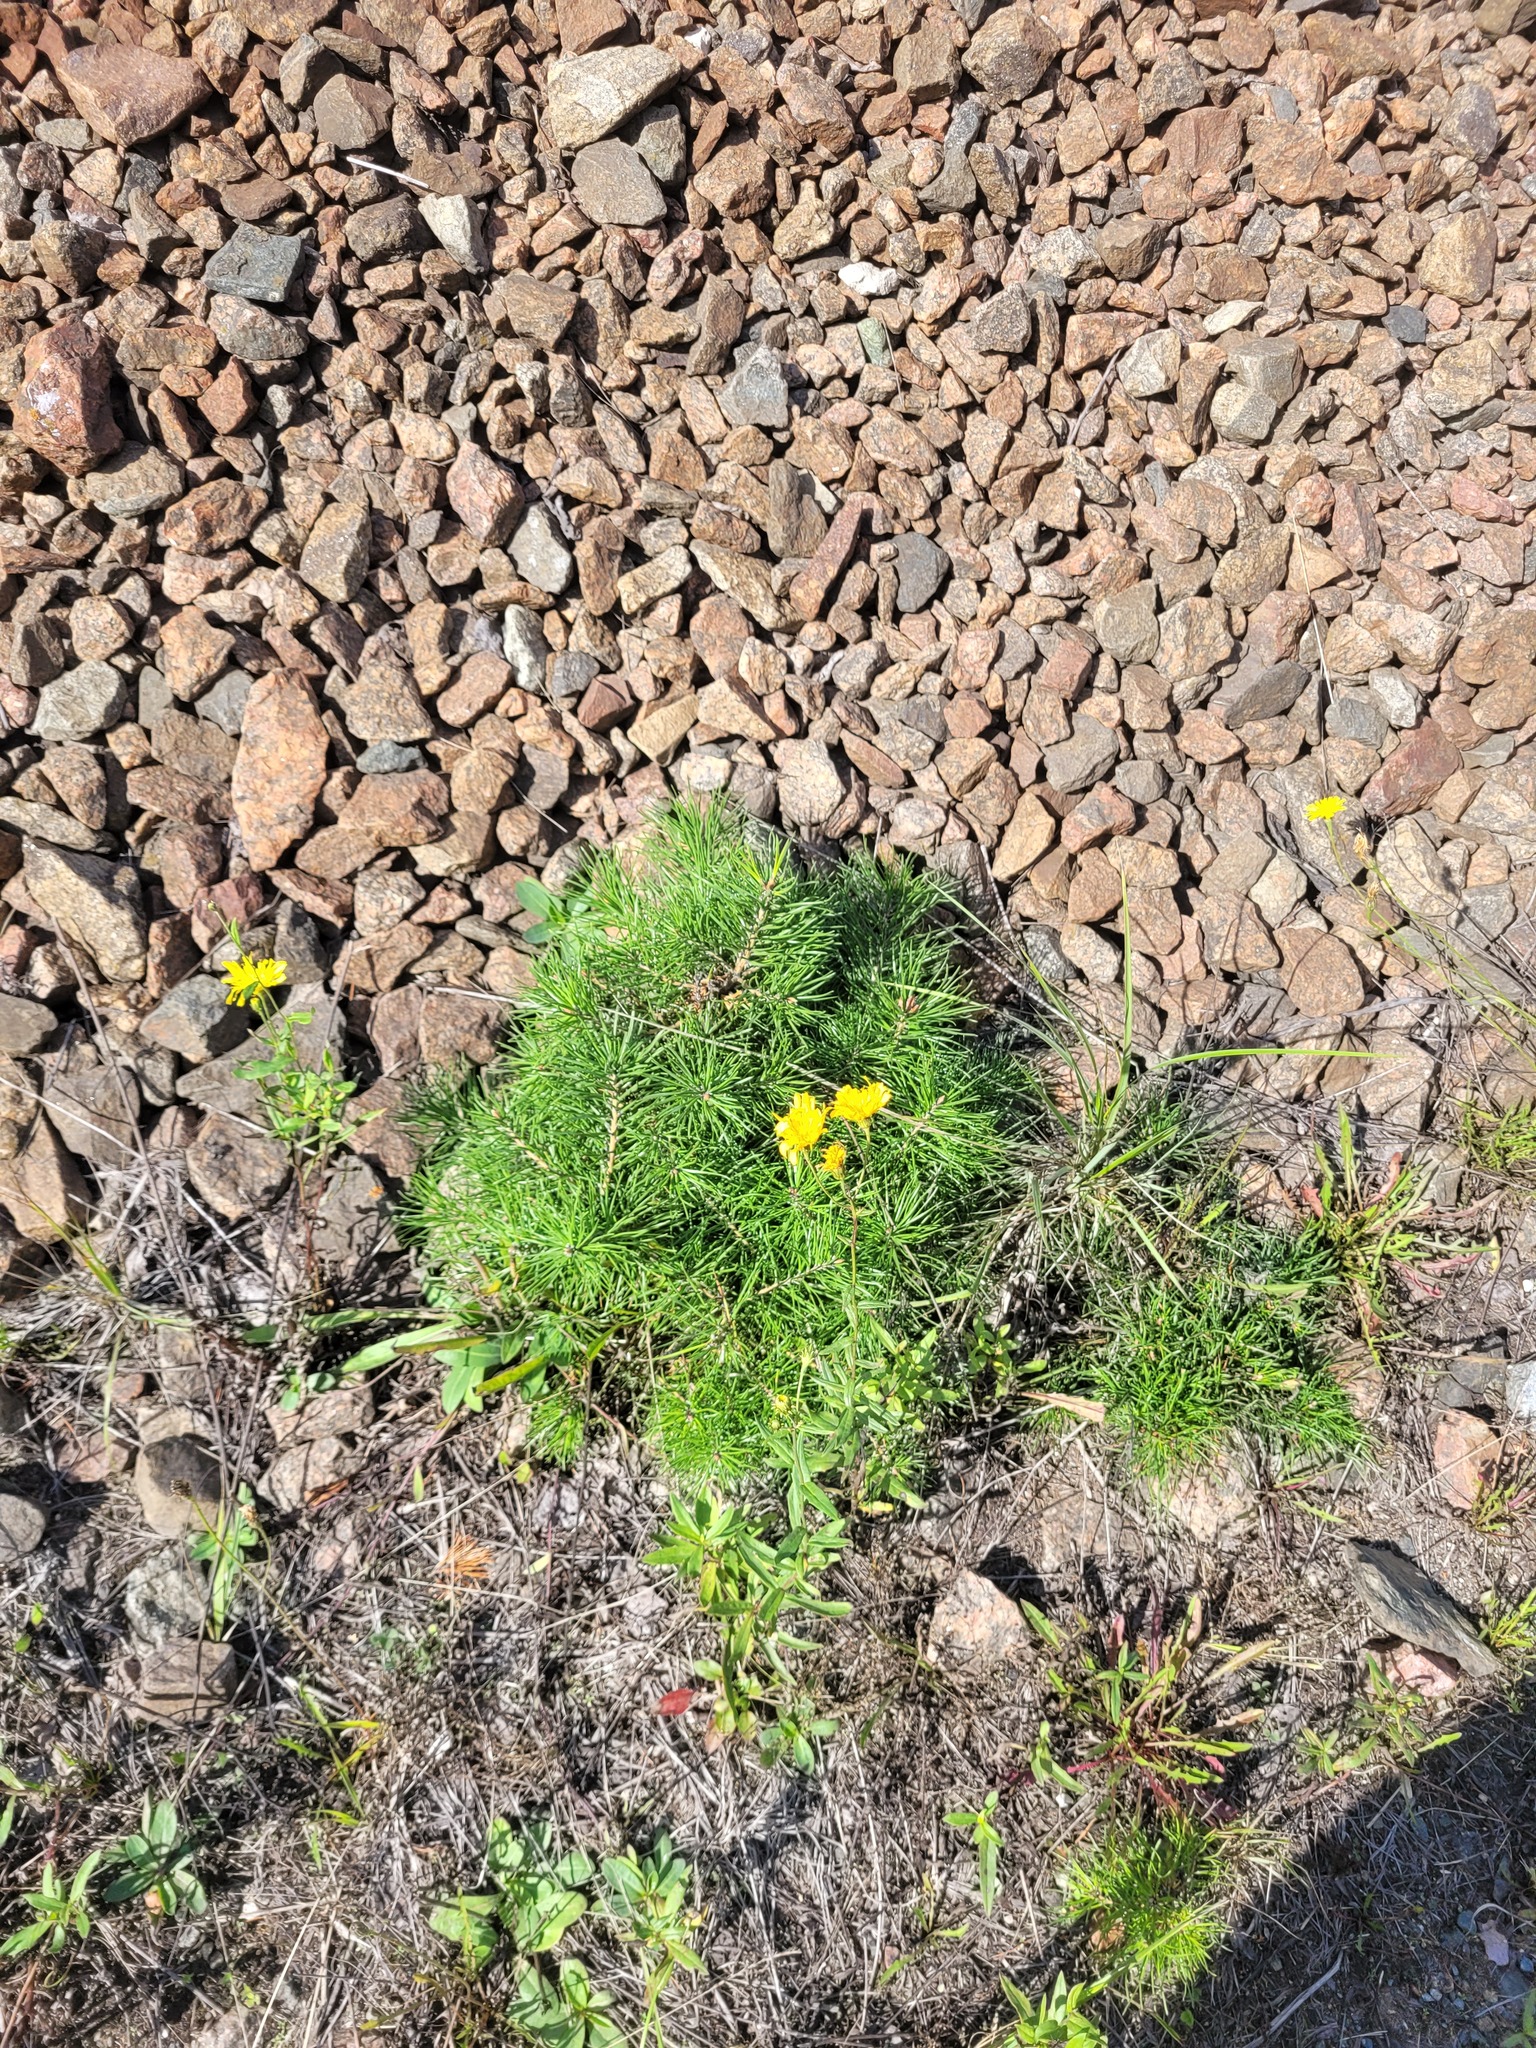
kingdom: Plantae
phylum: Tracheophyta
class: Pinopsida
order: Pinales
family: Pinaceae
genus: Pinus
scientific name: Pinus sylvestris
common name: Scots pine
